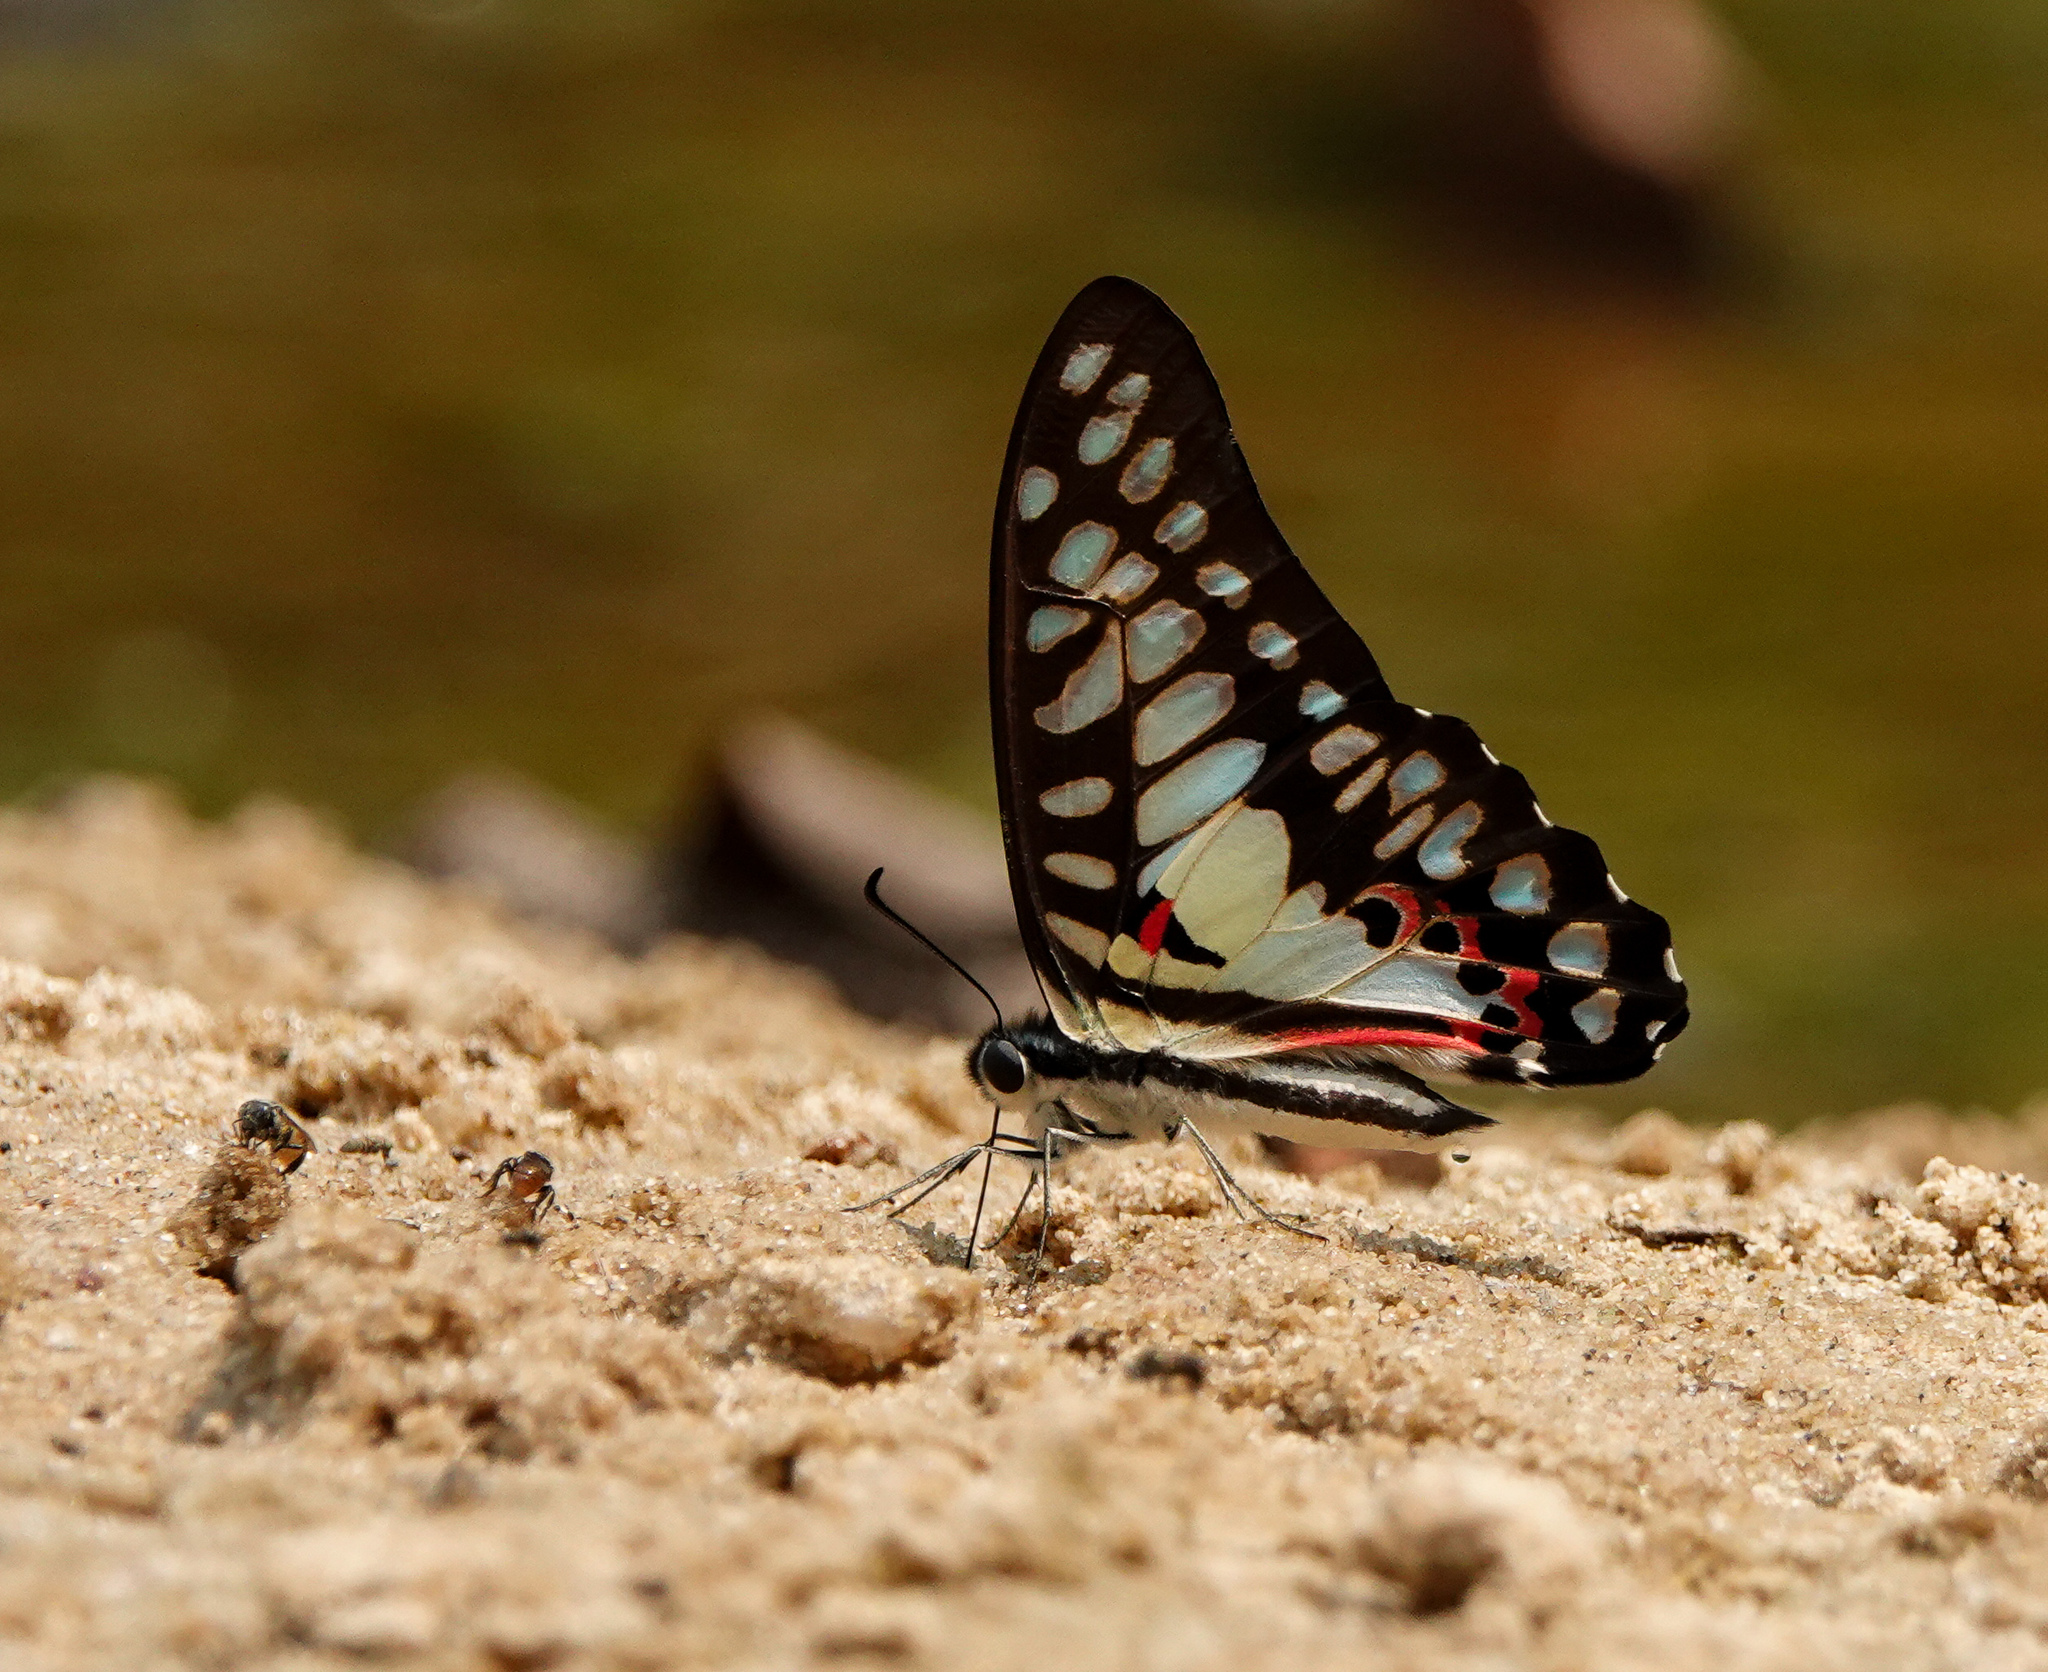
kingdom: Animalia
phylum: Arthropoda
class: Insecta
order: Lepidoptera
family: Papilionidae
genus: Graphium
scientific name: Graphium doson
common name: Common jay
